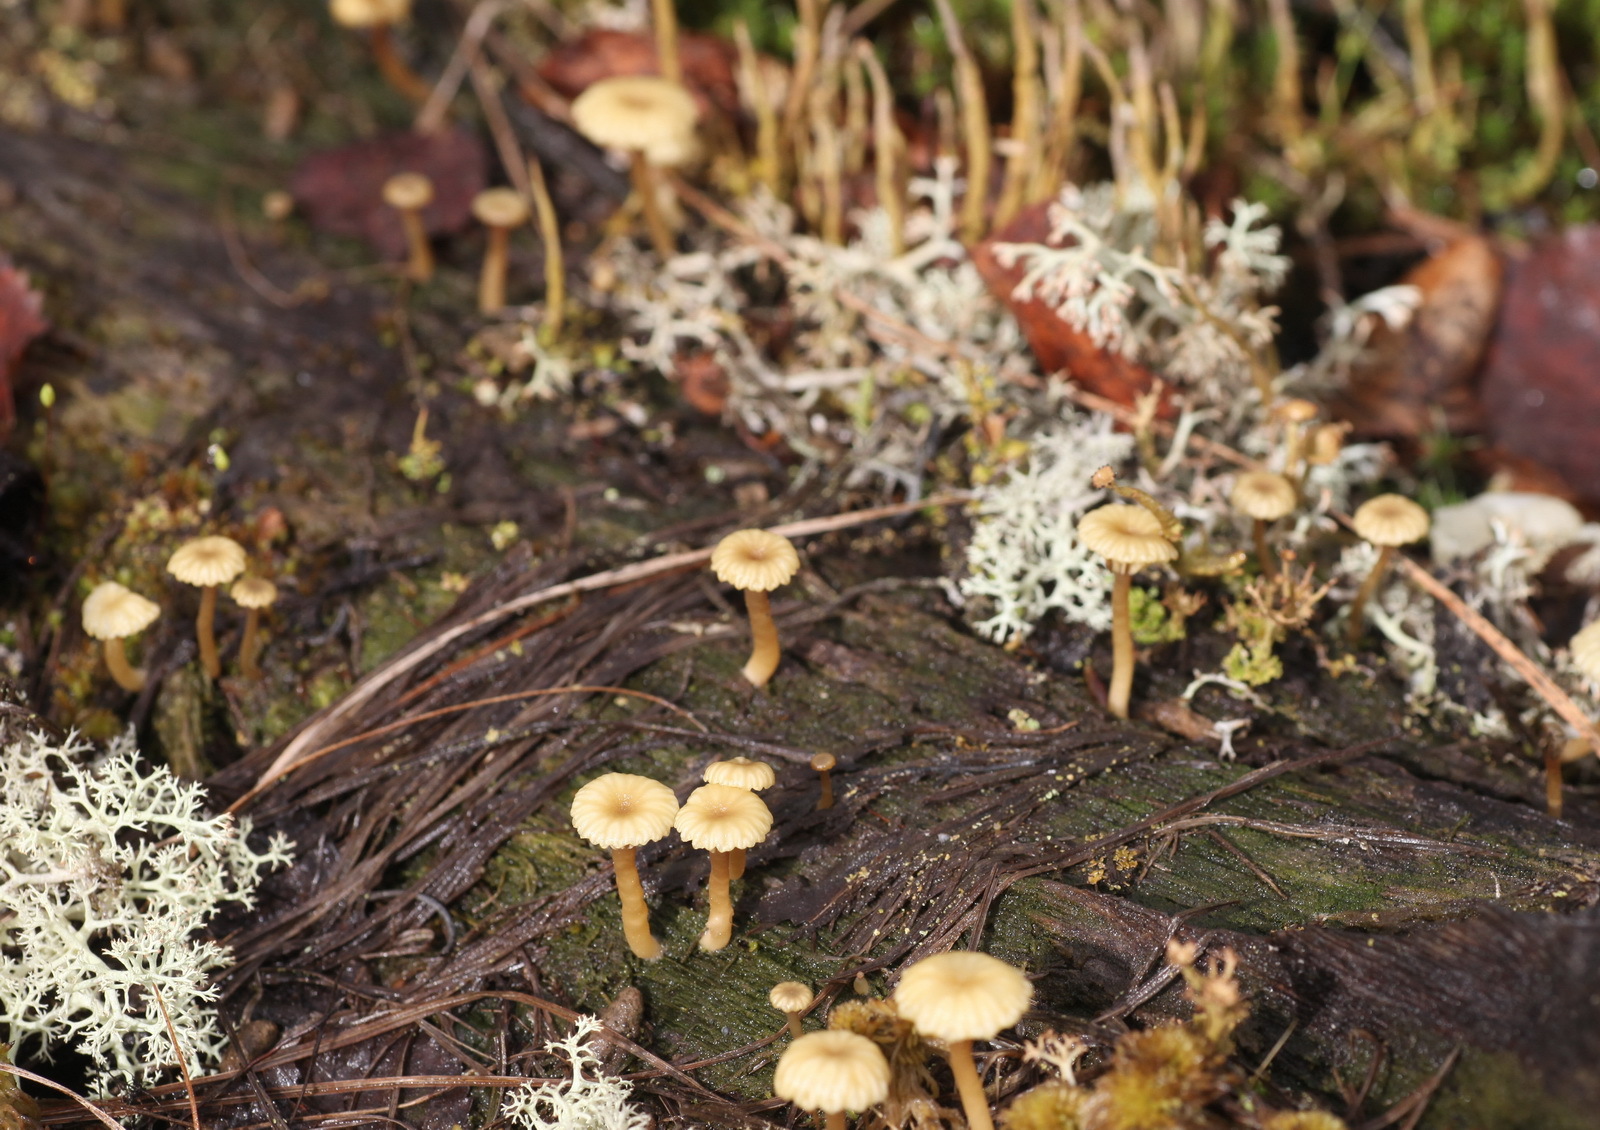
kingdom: Fungi
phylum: Basidiomycota
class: Agaricomycetes
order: Agaricales
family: Hygrophoraceae
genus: Lichenomphalia
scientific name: Lichenomphalia
